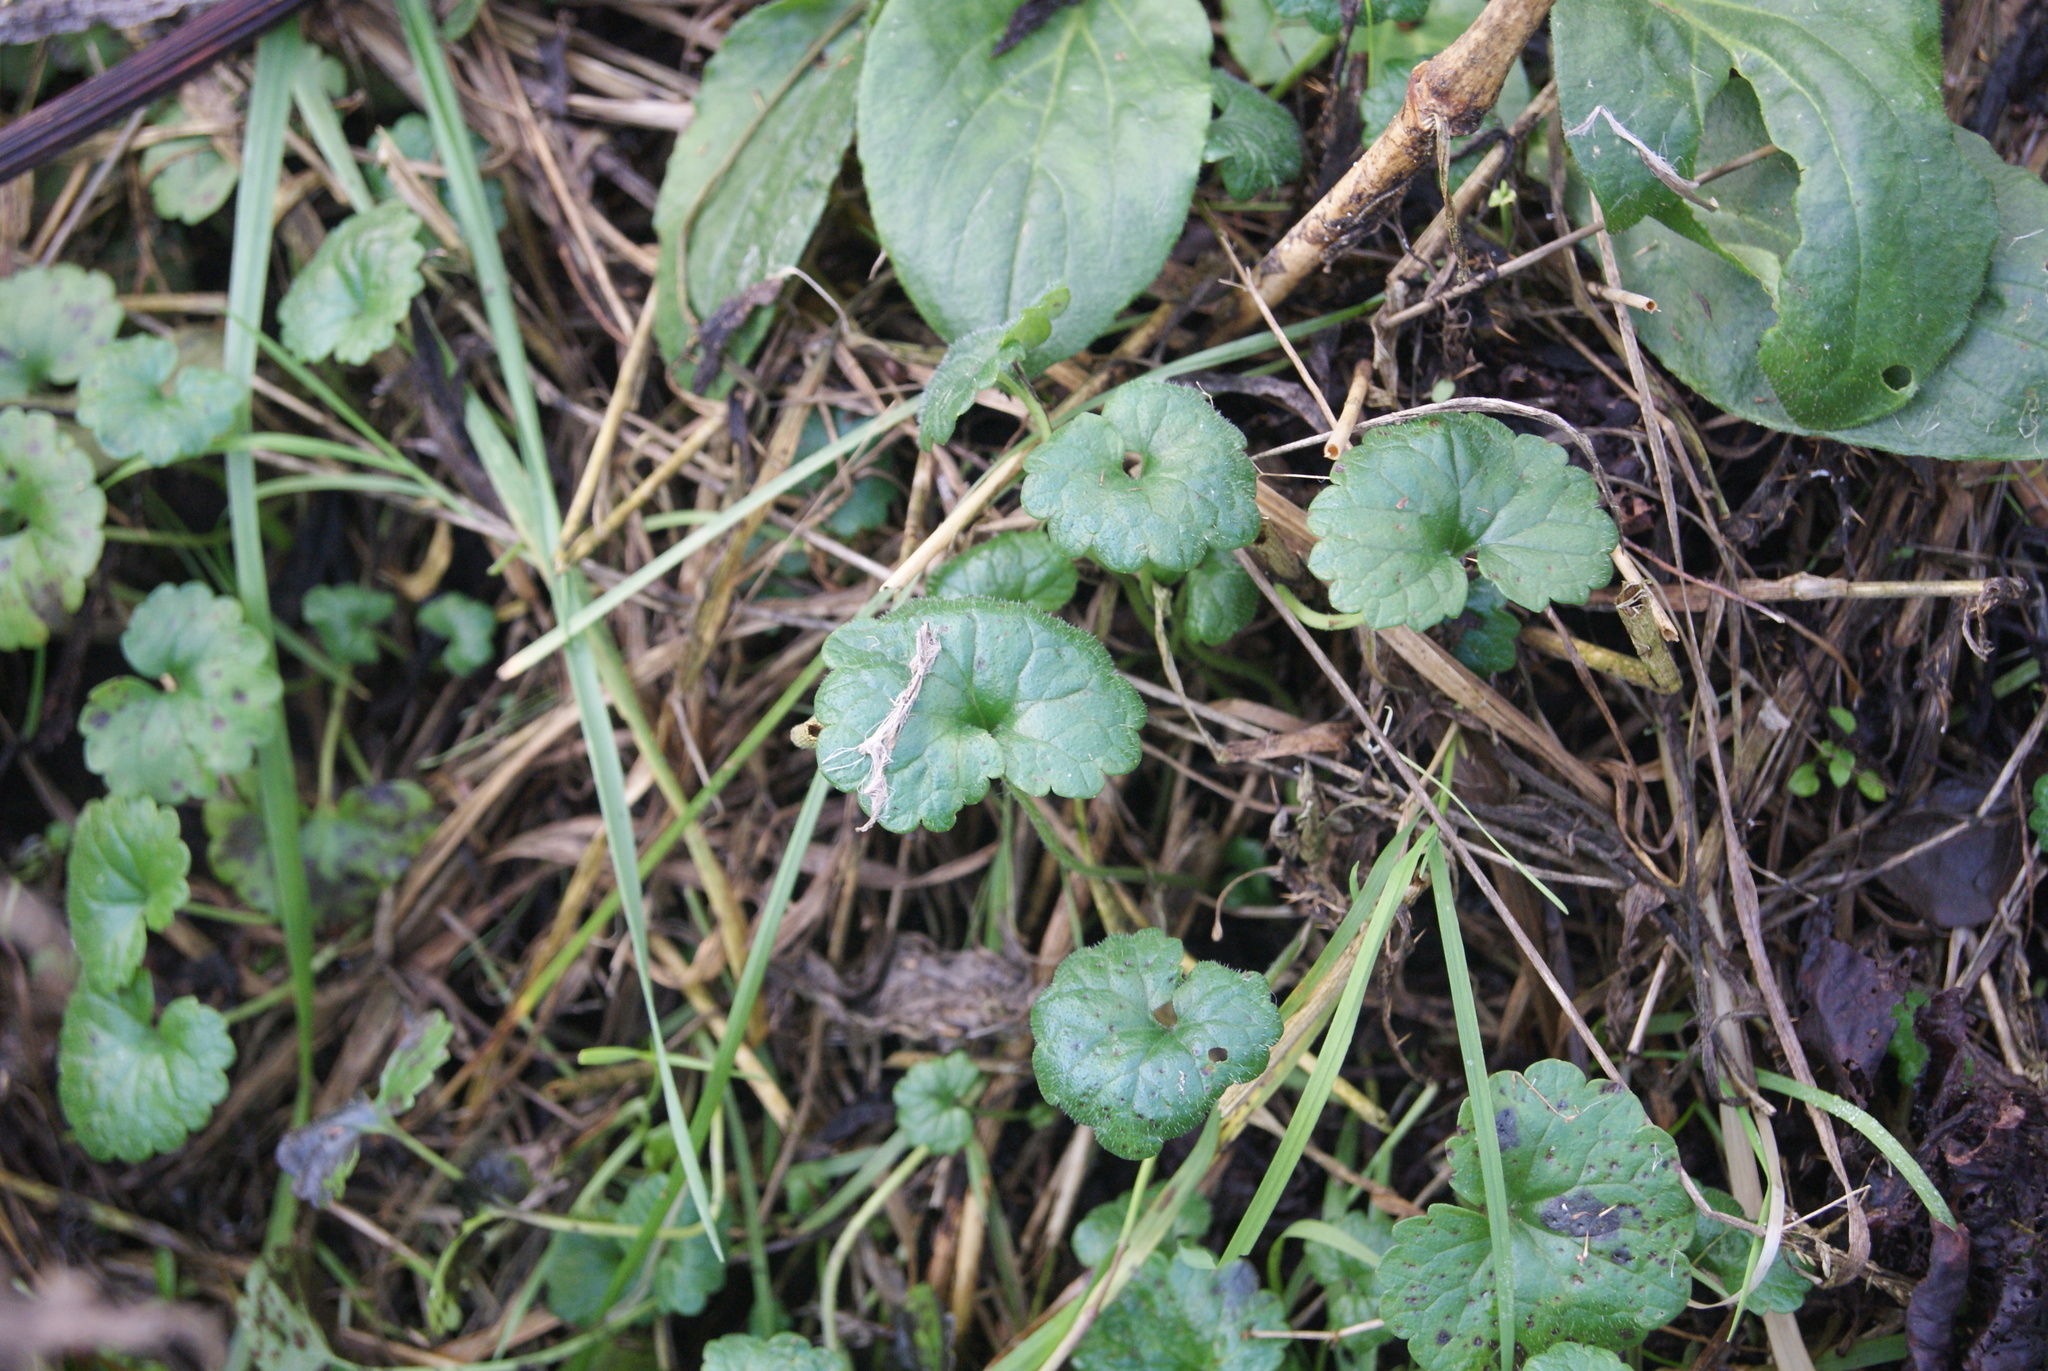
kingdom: Plantae
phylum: Tracheophyta
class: Magnoliopsida
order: Lamiales
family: Lamiaceae
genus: Glechoma
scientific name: Glechoma hederacea
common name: Ground ivy
